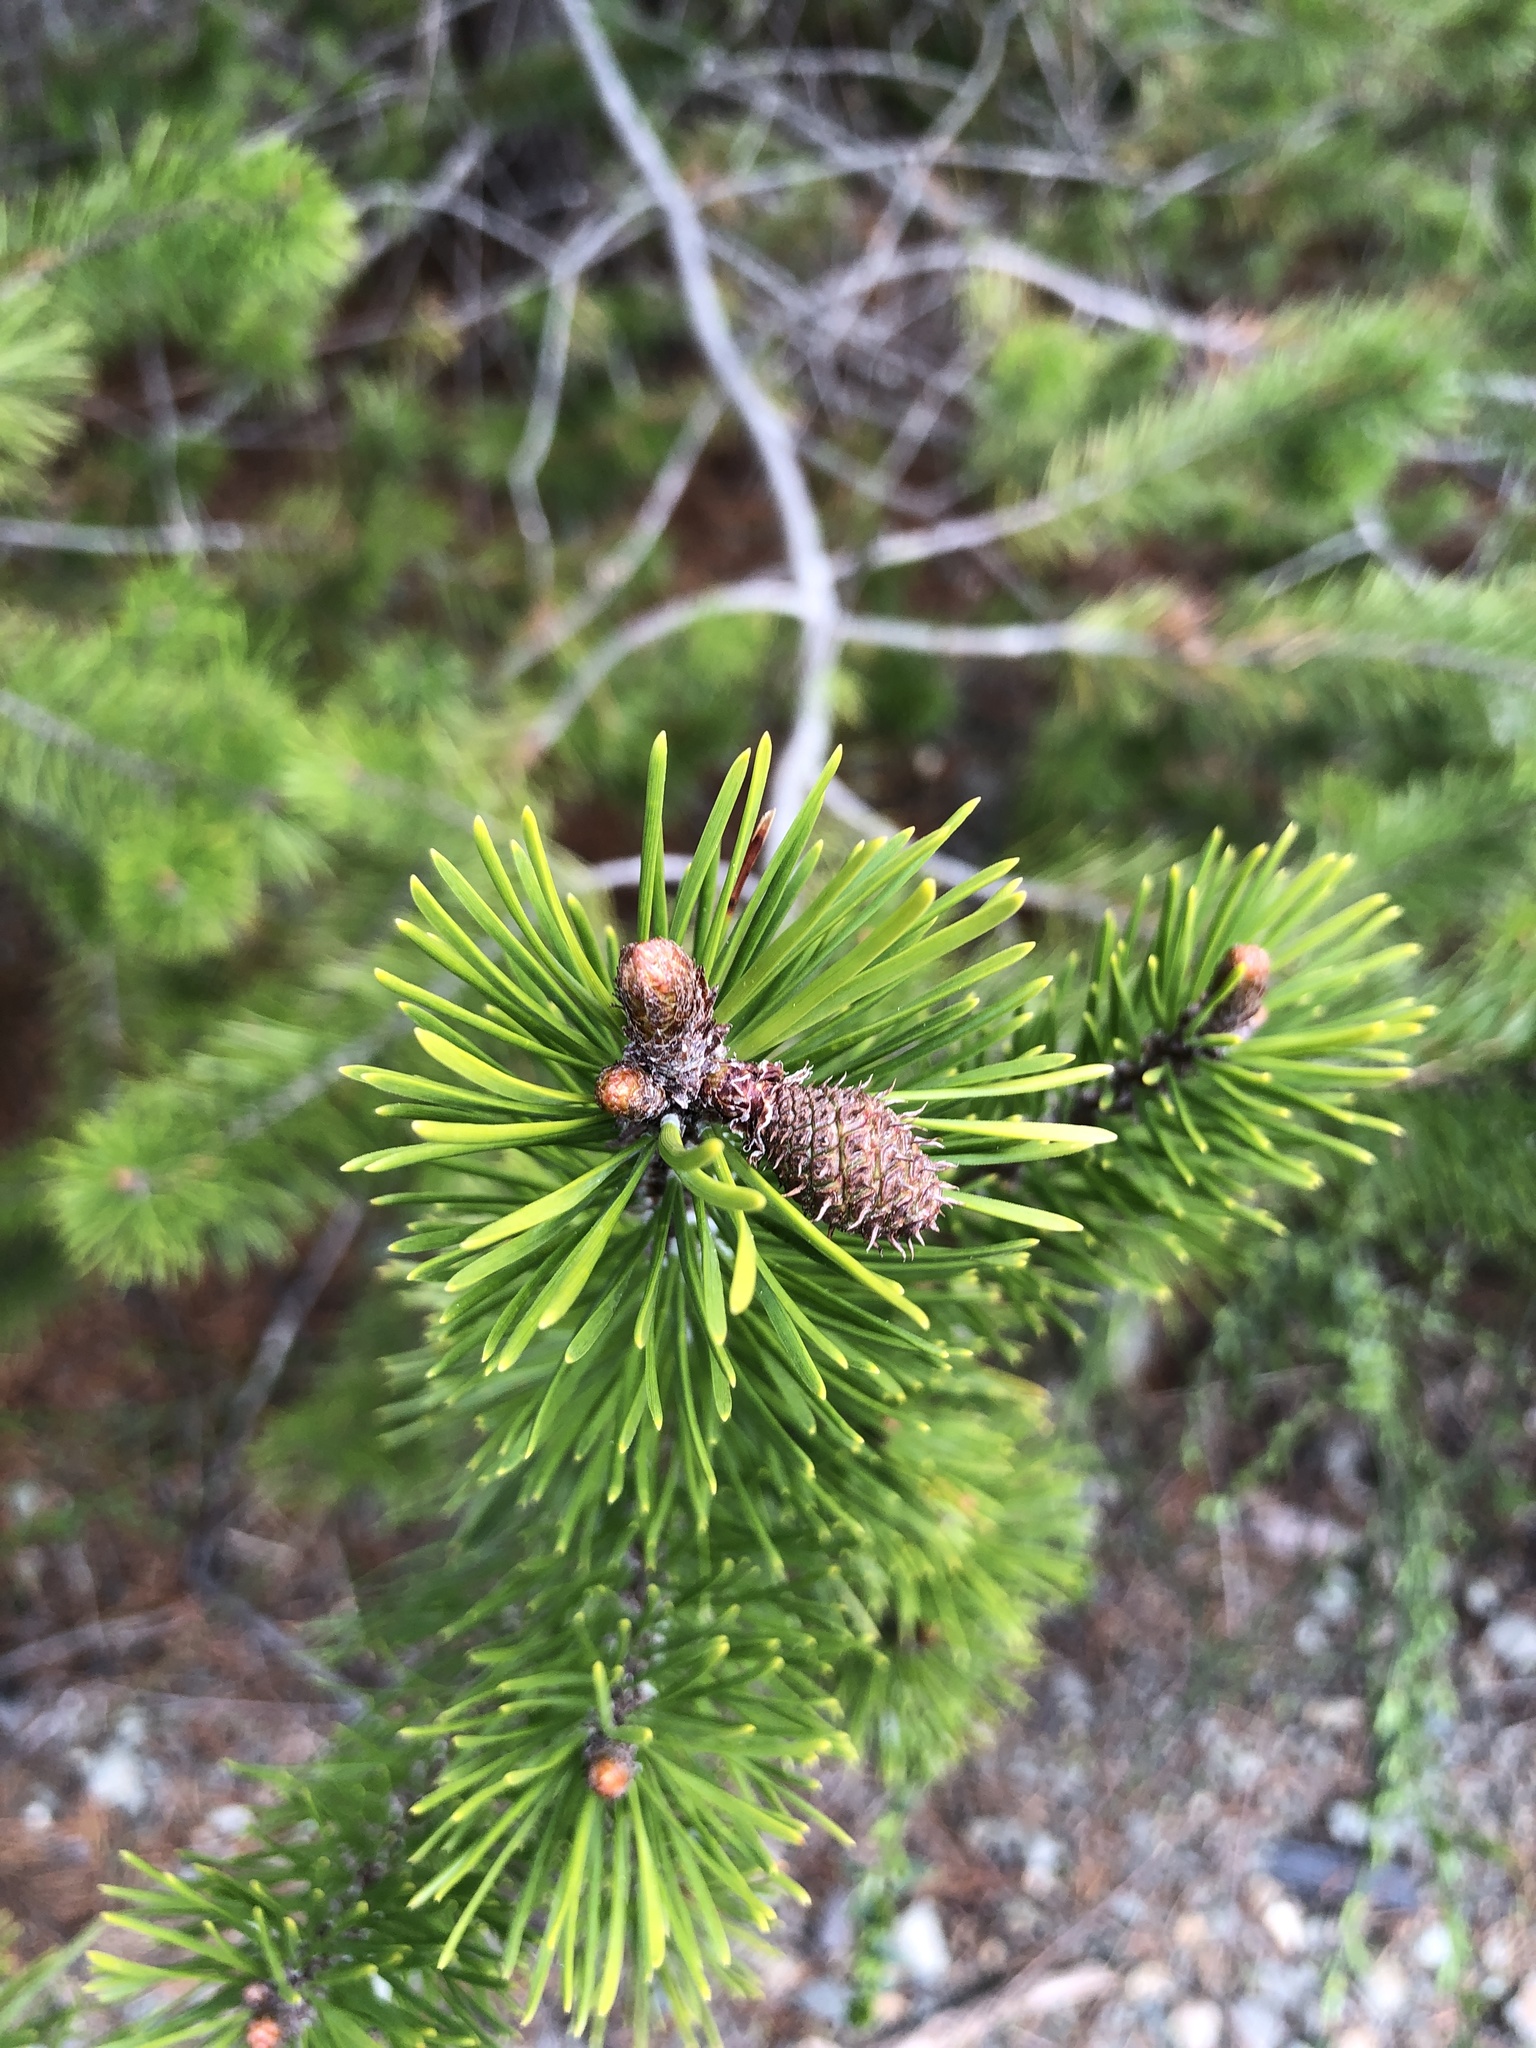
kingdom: Plantae
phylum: Tracheophyta
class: Pinopsida
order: Pinales
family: Pinaceae
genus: Pinus
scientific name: Pinus contorta
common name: Lodgepole pine
